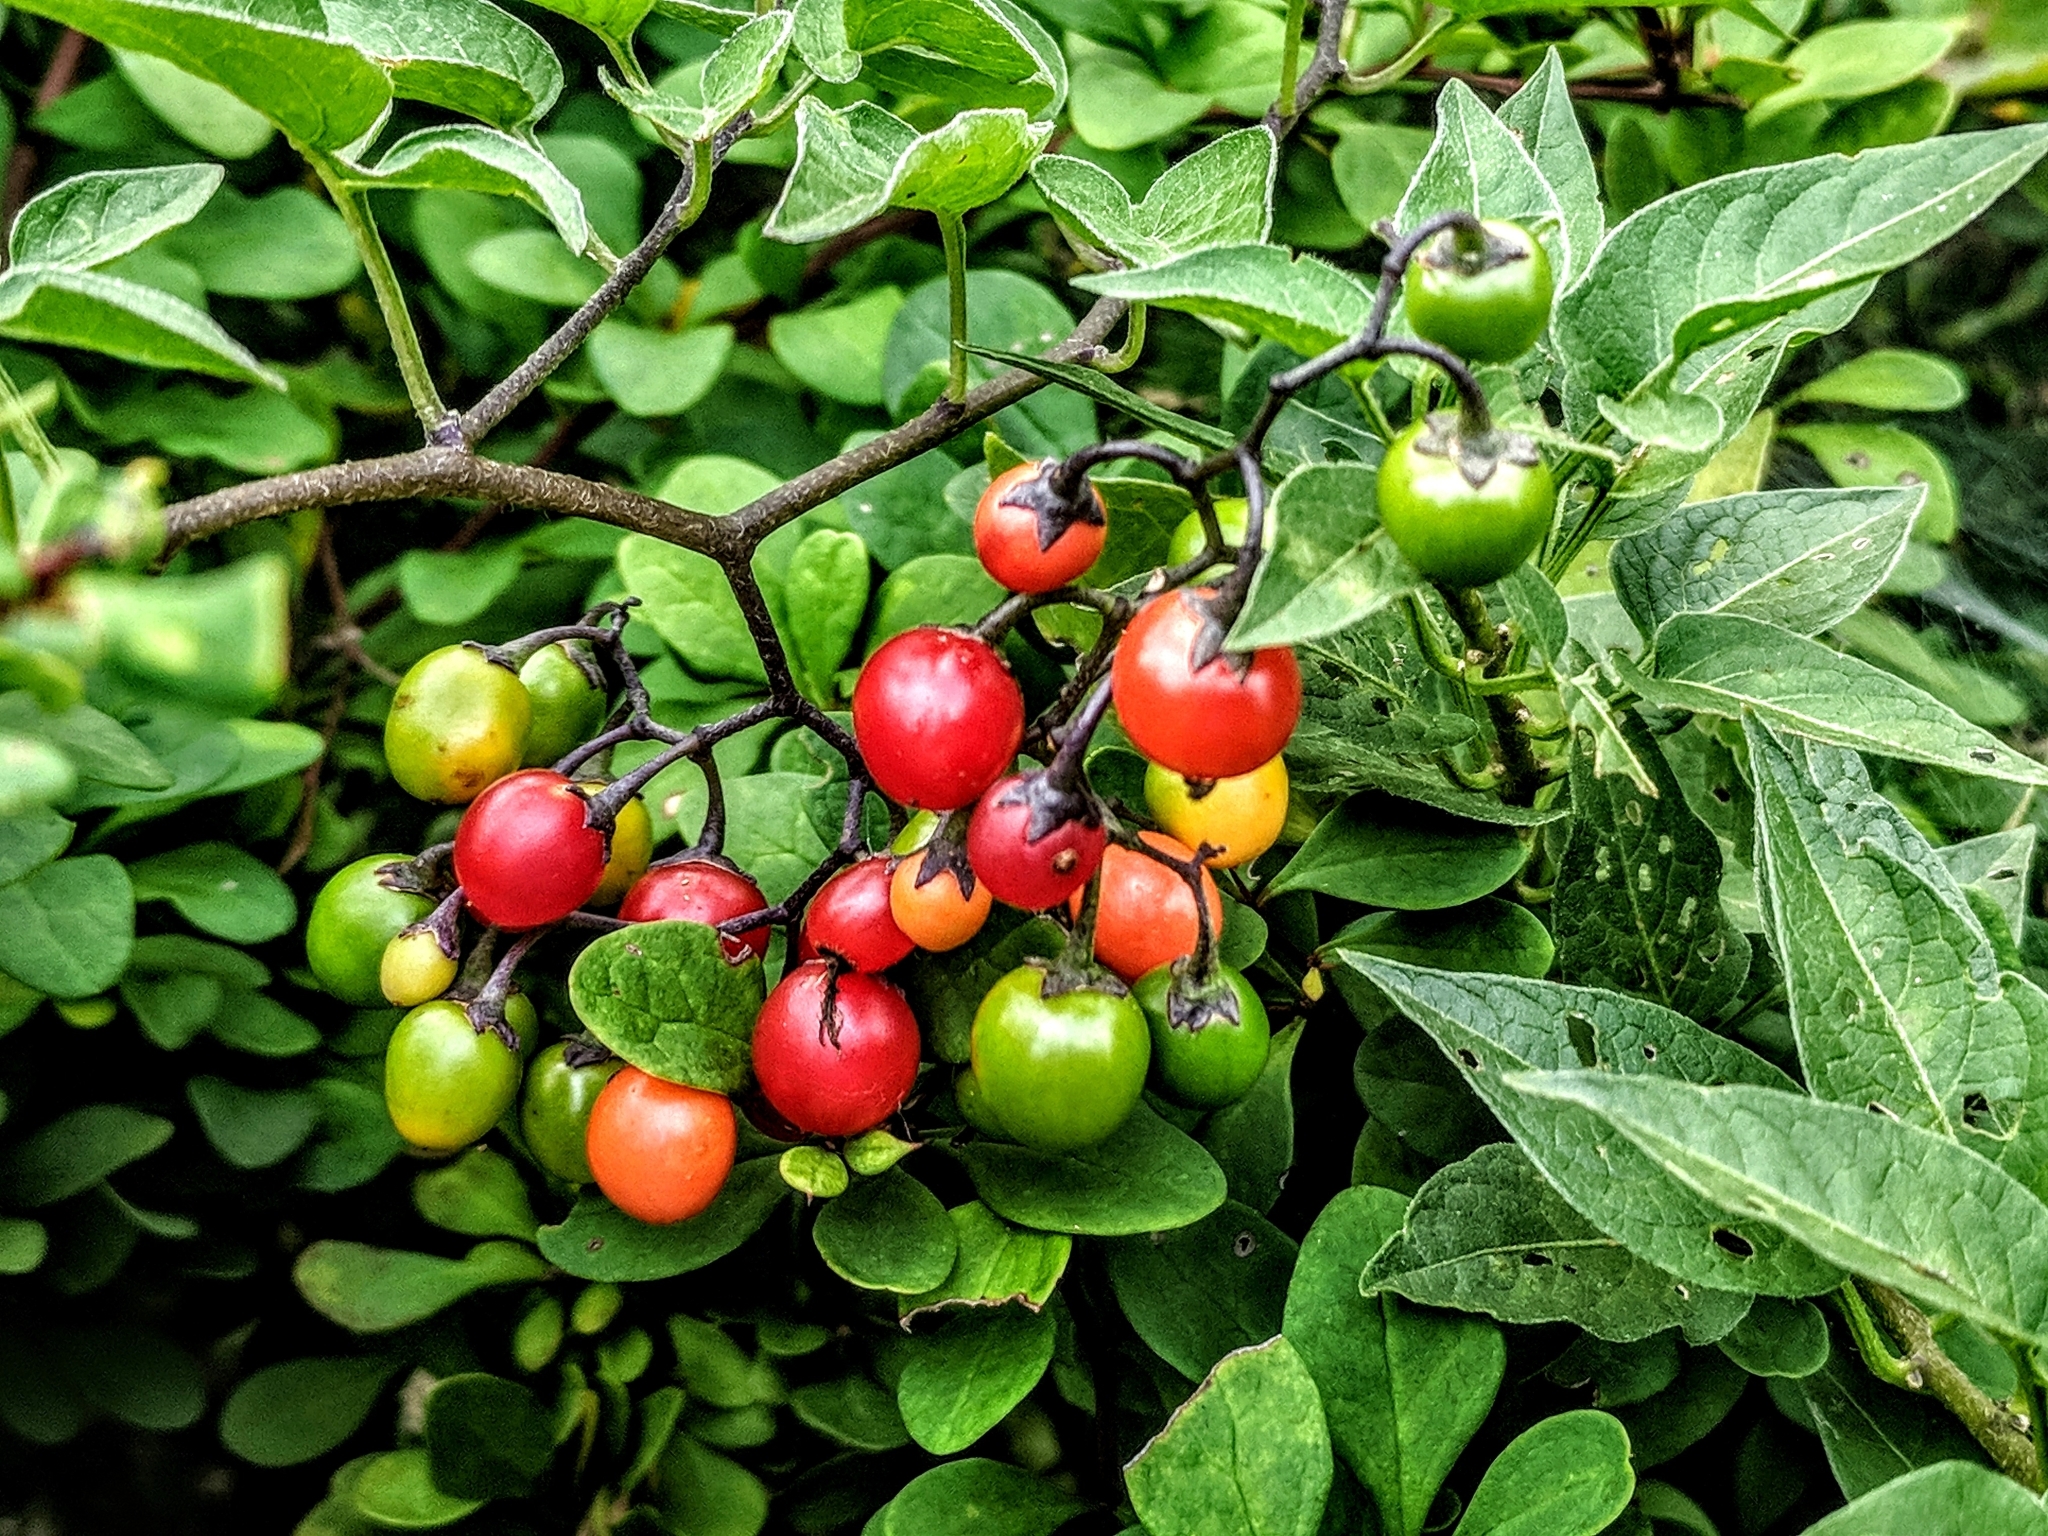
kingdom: Plantae
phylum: Tracheophyta
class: Magnoliopsida
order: Solanales
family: Solanaceae
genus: Solanum
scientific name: Solanum dulcamara
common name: Climbing nightshade
